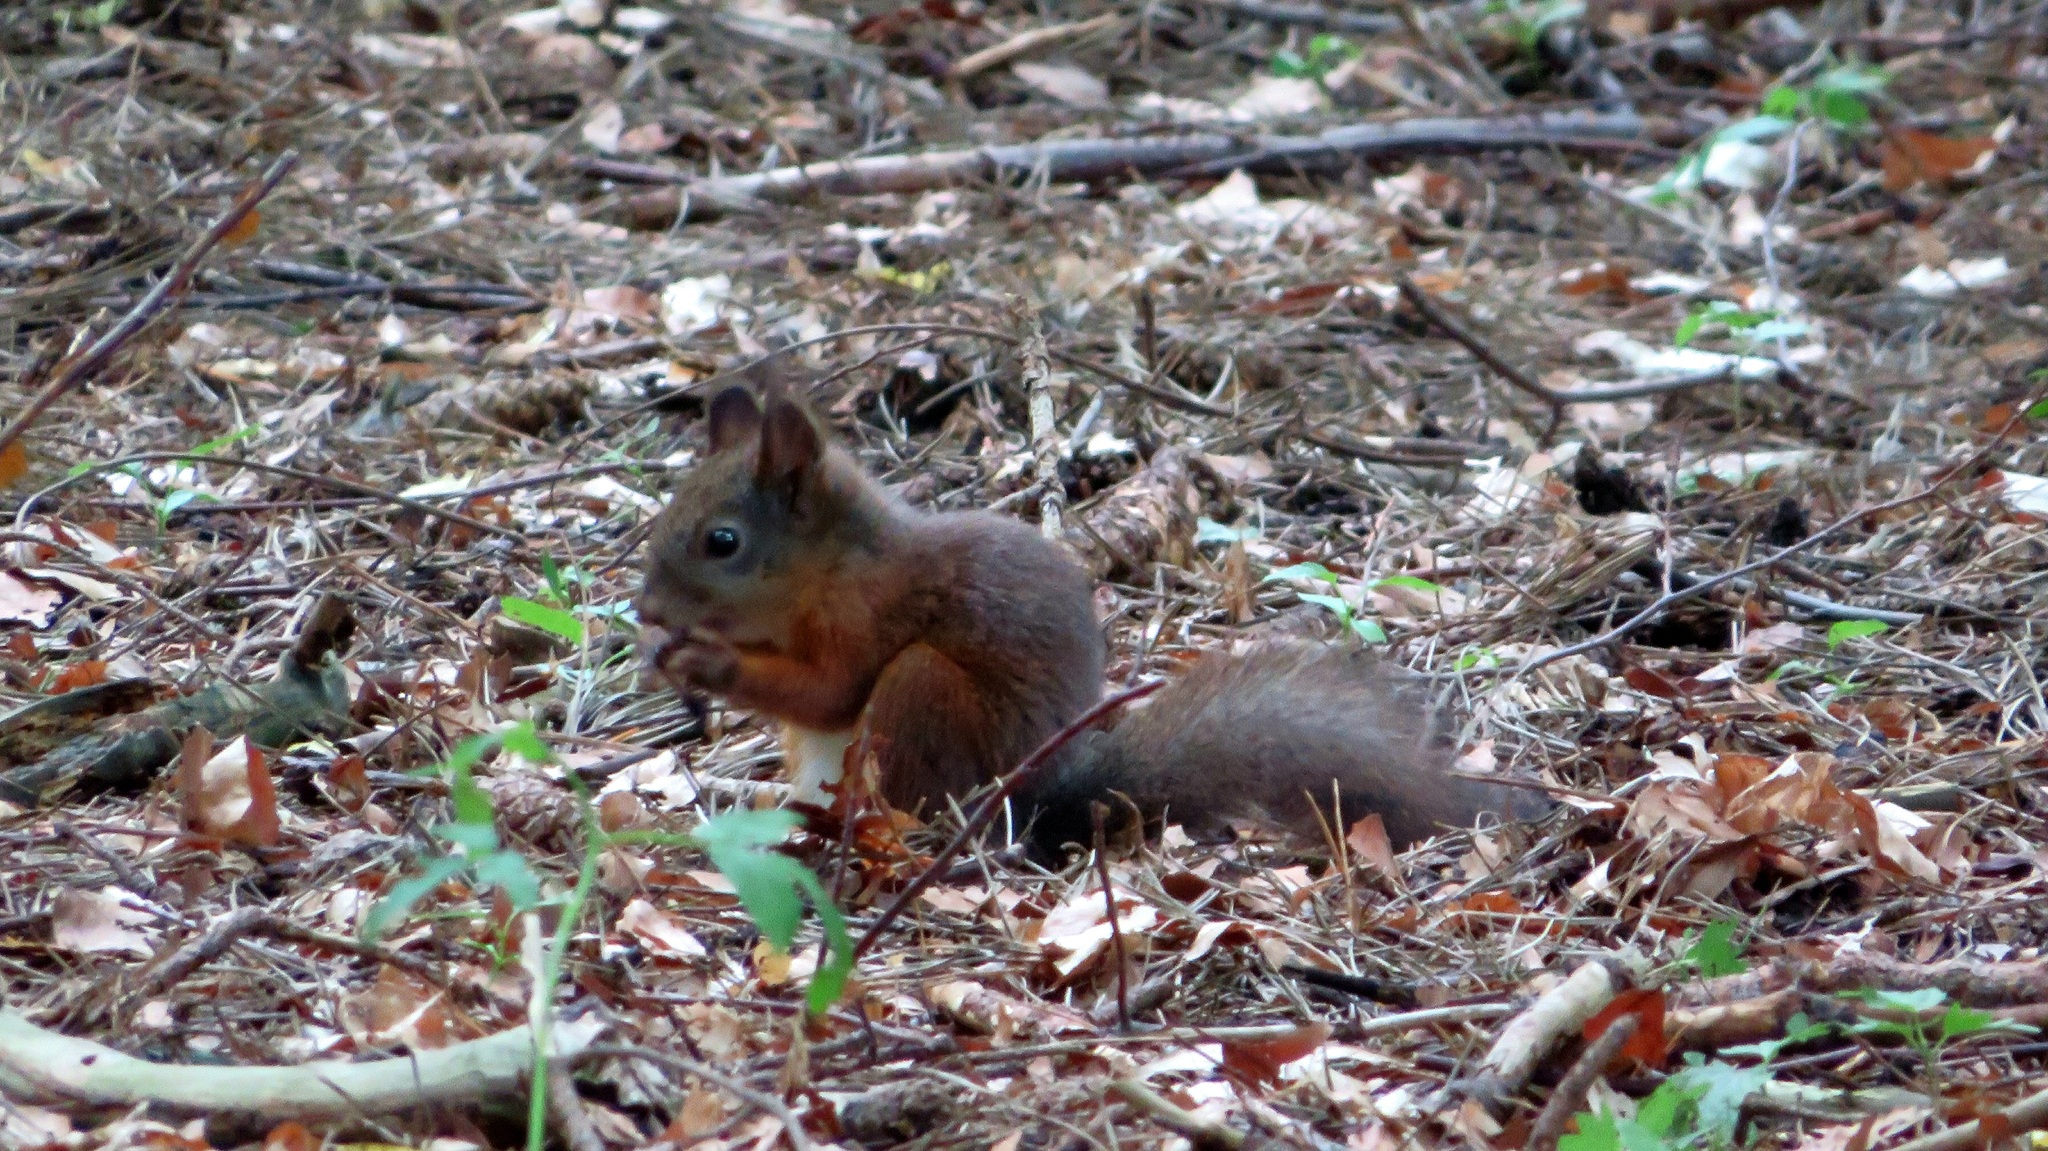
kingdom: Animalia
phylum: Chordata
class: Mammalia
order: Rodentia
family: Sciuridae
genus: Sciurus
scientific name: Sciurus vulgaris
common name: Eurasian red squirrel
